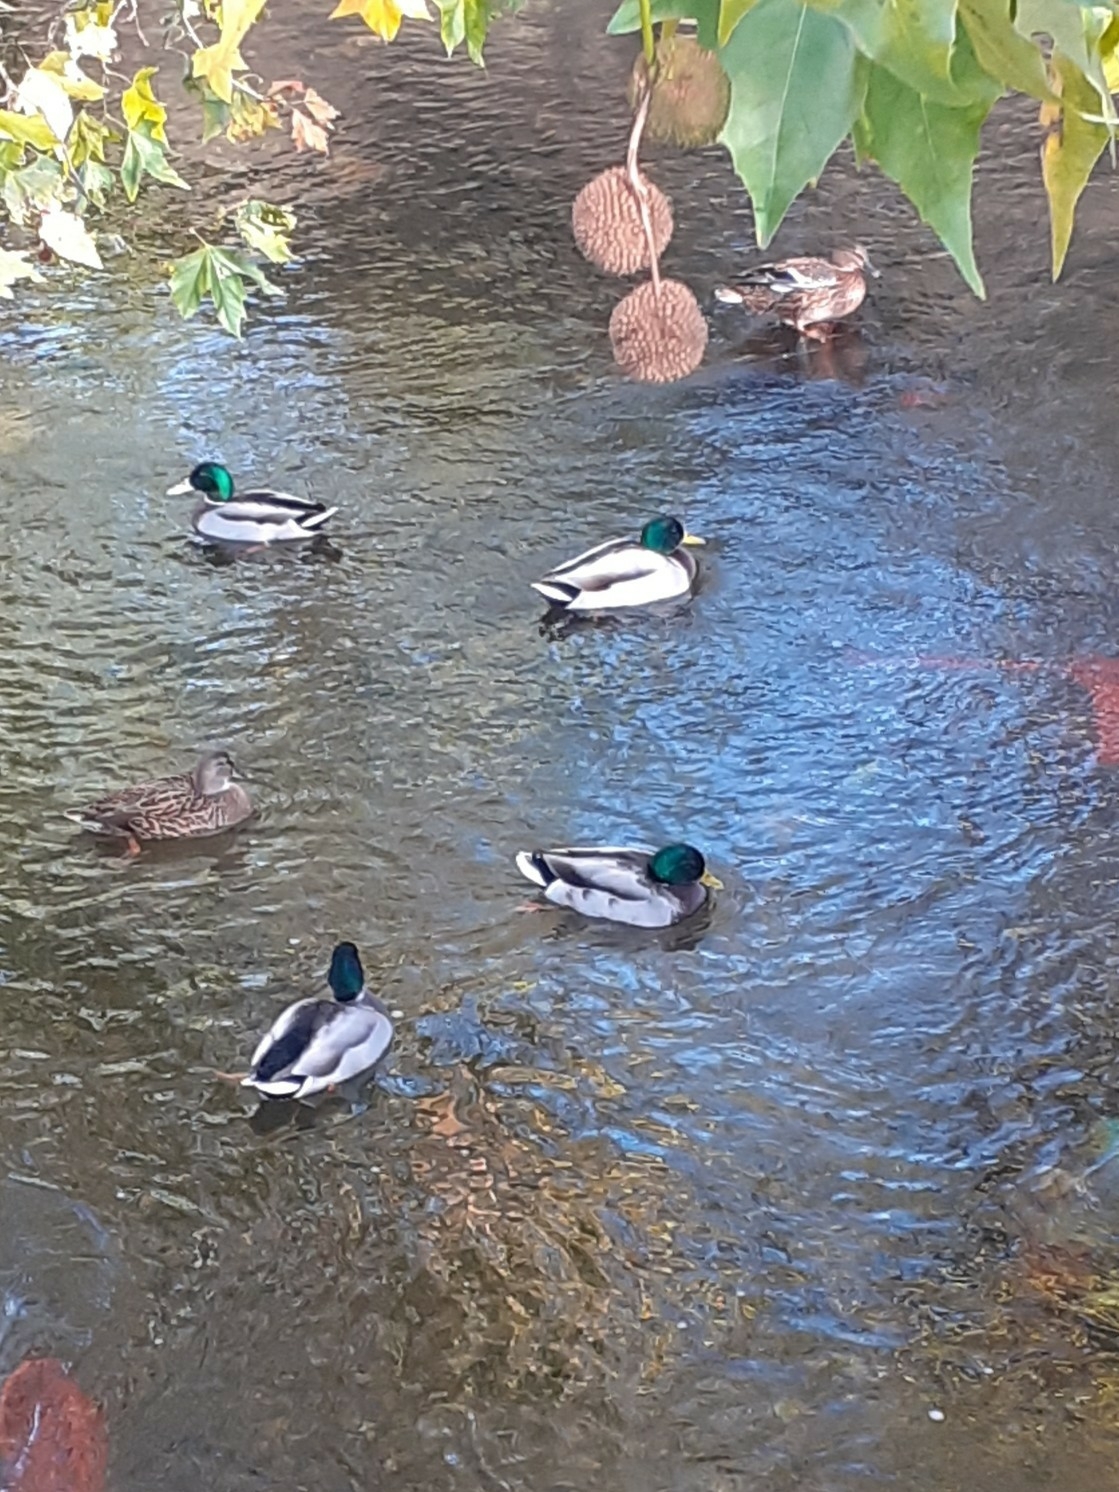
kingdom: Animalia
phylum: Chordata
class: Aves
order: Anseriformes
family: Anatidae
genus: Anas
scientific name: Anas platyrhynchos
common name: Mallard
